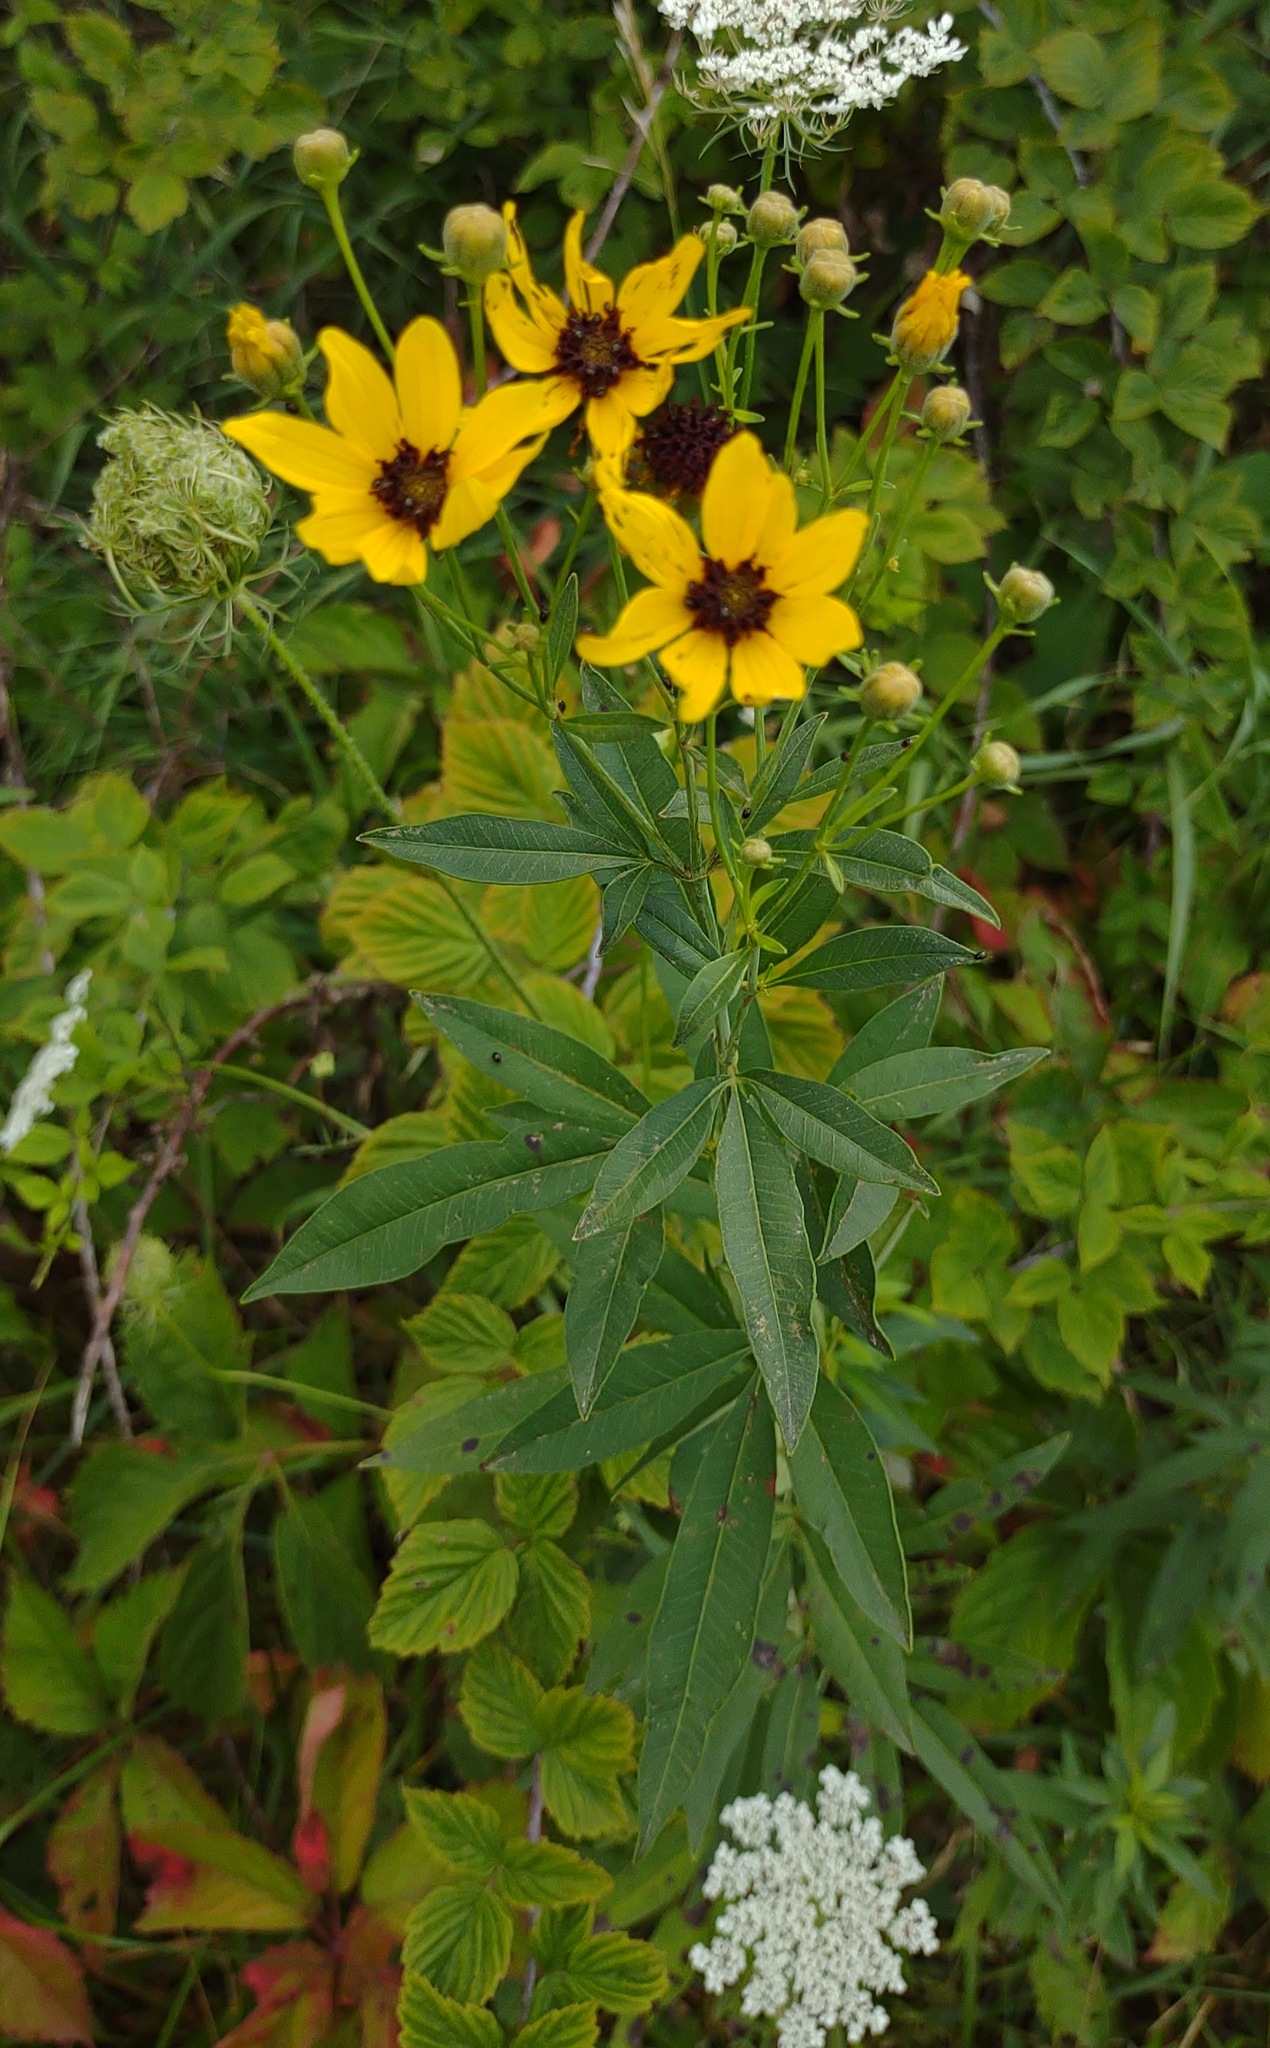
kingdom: Plantae
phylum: Tracheophyta
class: Magnoliopsida
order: Asterales
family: Asteraceae
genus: Coreopsis
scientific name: Coreopsis tripteris
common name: Tall coreopsis
